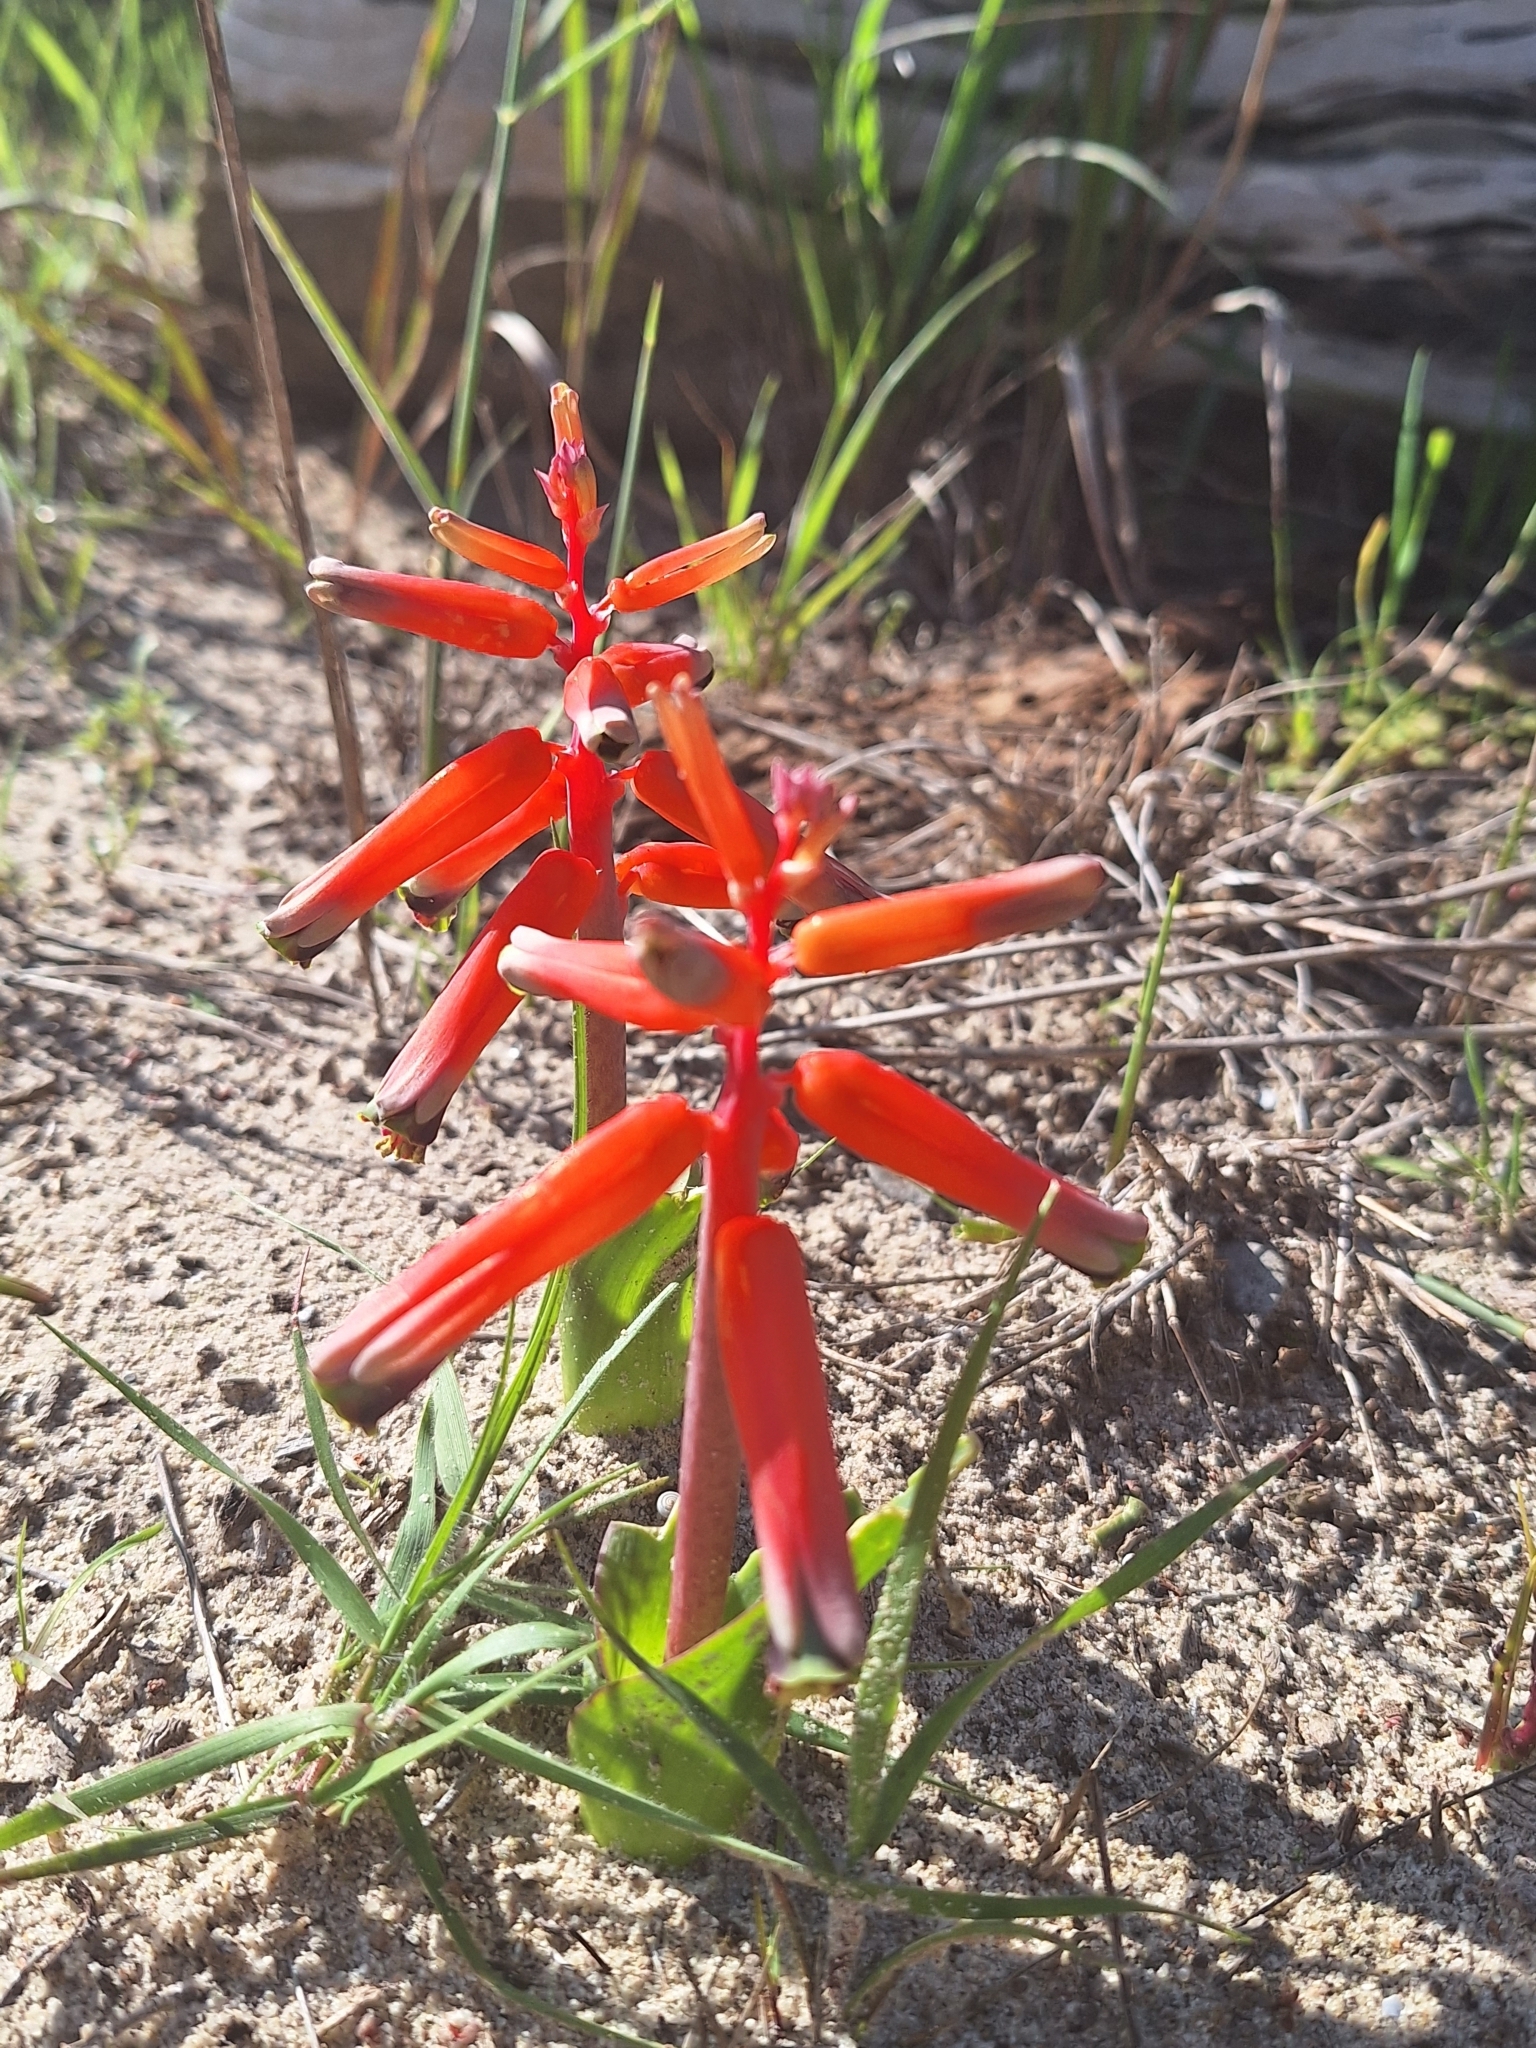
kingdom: Plantae
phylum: Tracheophyta
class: Liliopsida
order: Asparagales
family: Asparagaceae
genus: Lachenalia
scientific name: Lachenalia bulbifera
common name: Red lachenalia
